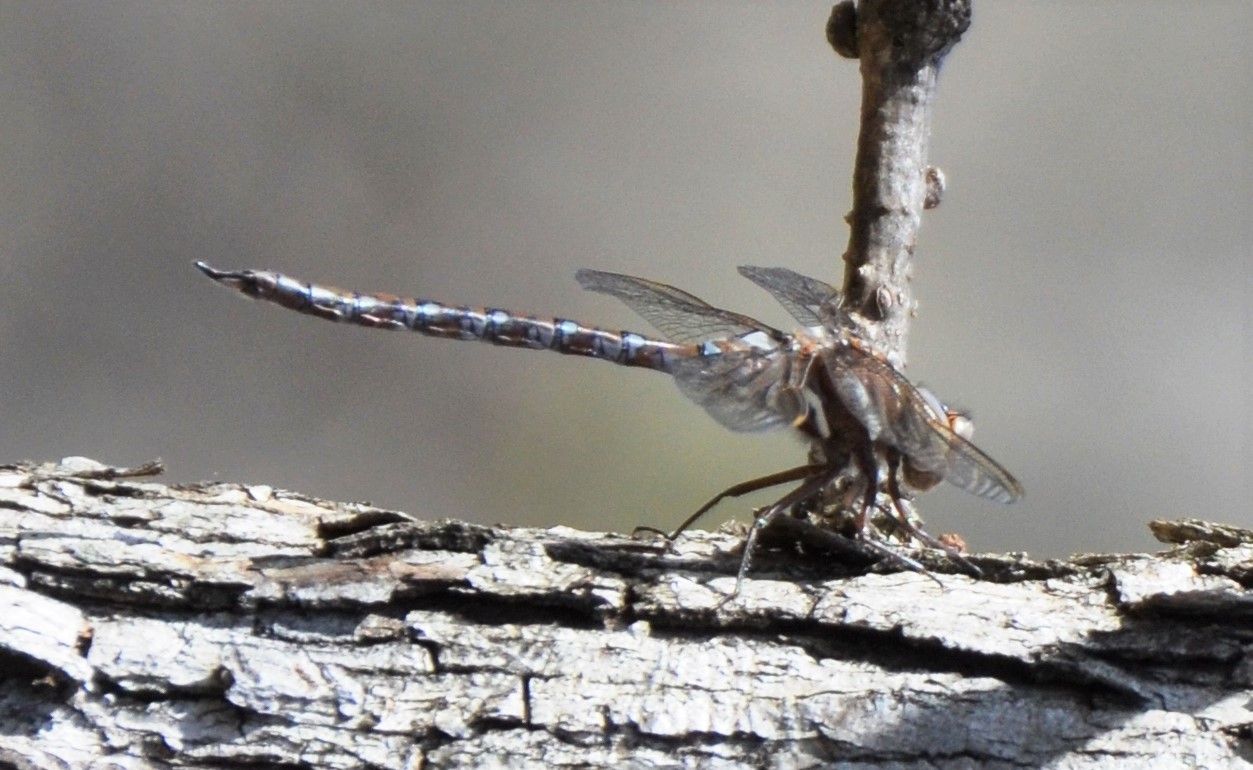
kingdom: Animalia
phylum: Arthropoda
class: Insecta
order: Odonata
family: Aeshnidae
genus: Basiaeschna
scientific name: Basiaeschna janata
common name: Springtime darner
